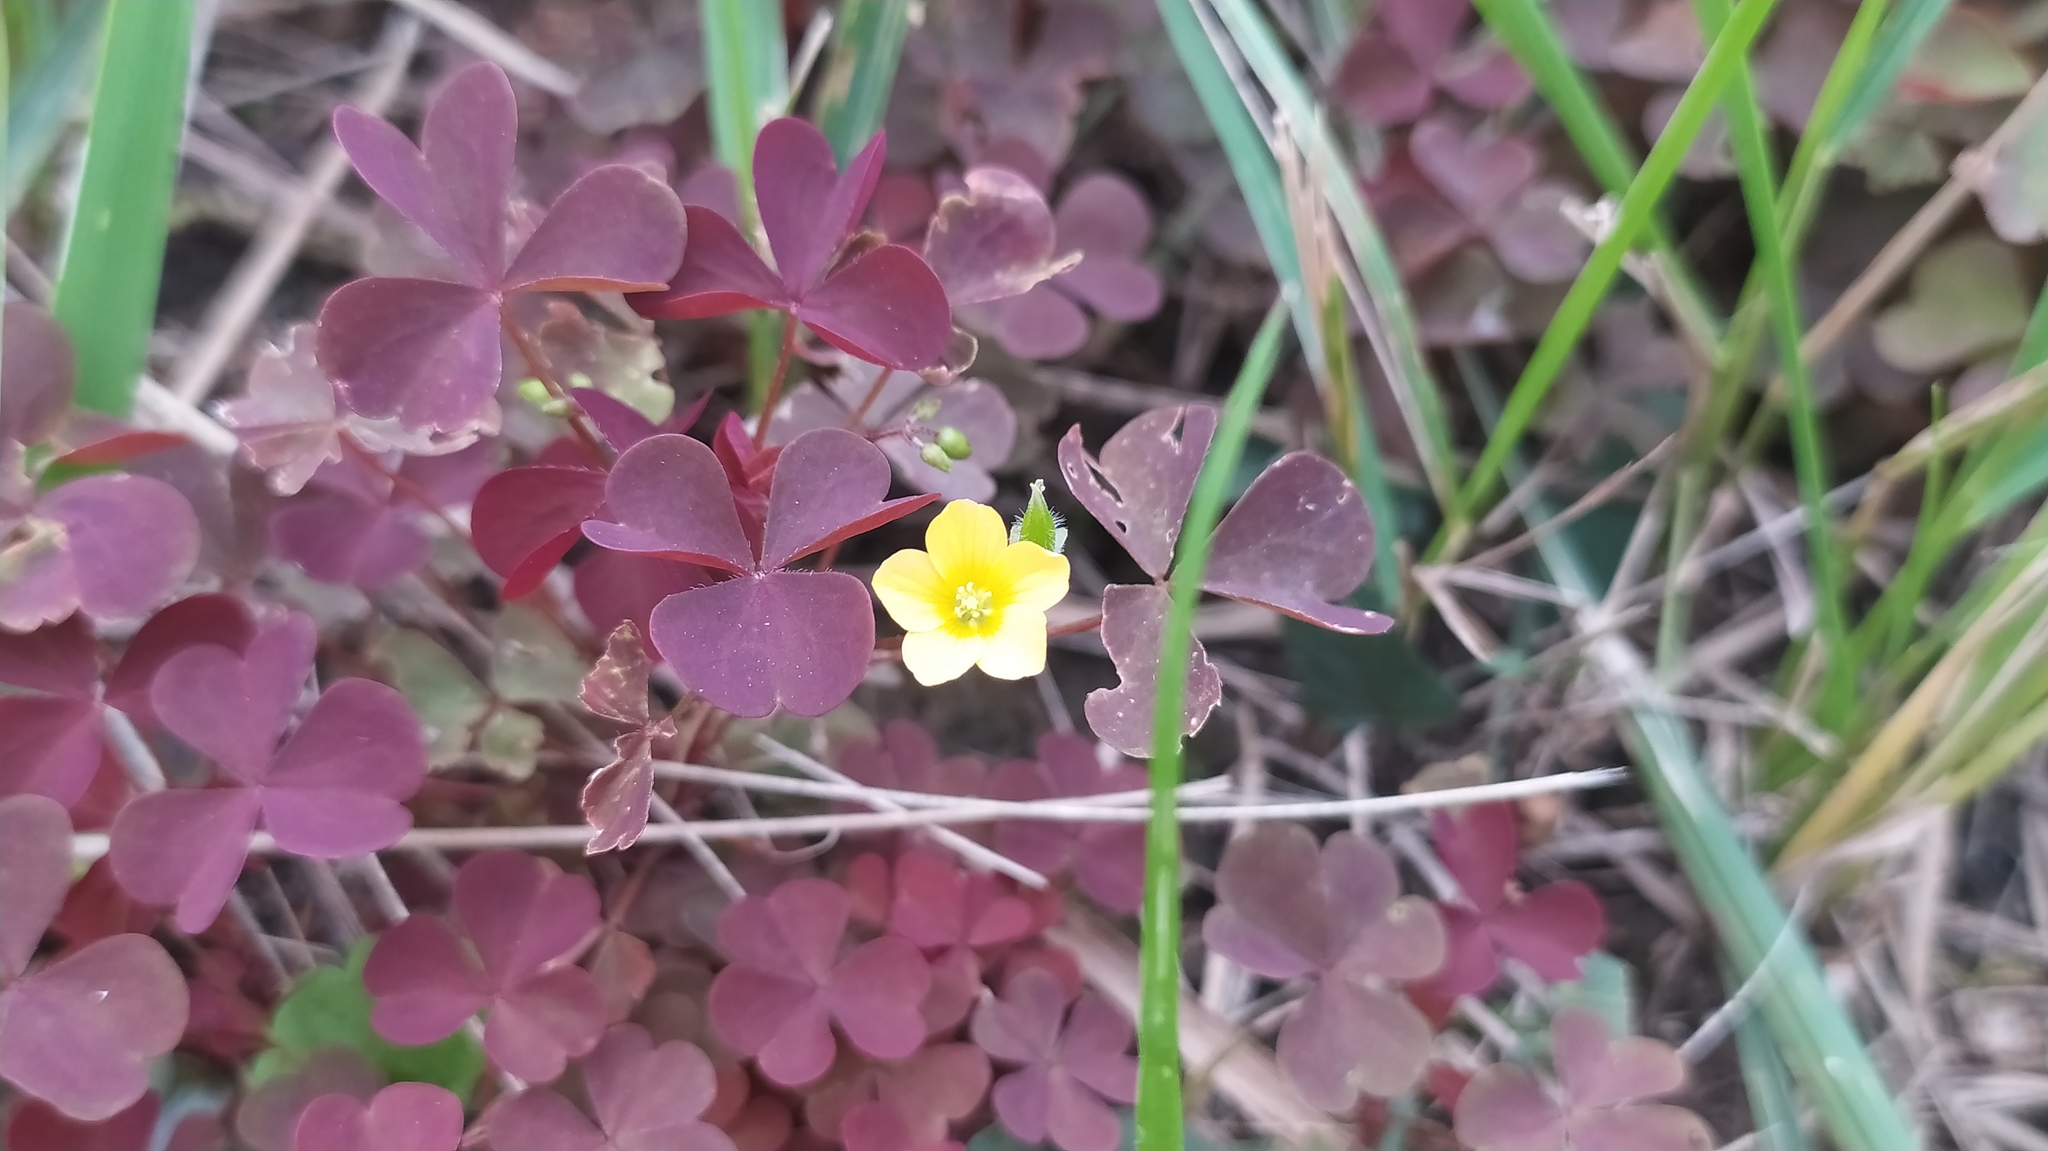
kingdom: Plantae
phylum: Tracheophyta
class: Magnoliopsida
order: Oxalidales
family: Oxalidaceae
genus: Oxalis
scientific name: Oxalis stricta
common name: Upright yellow-sorrel
